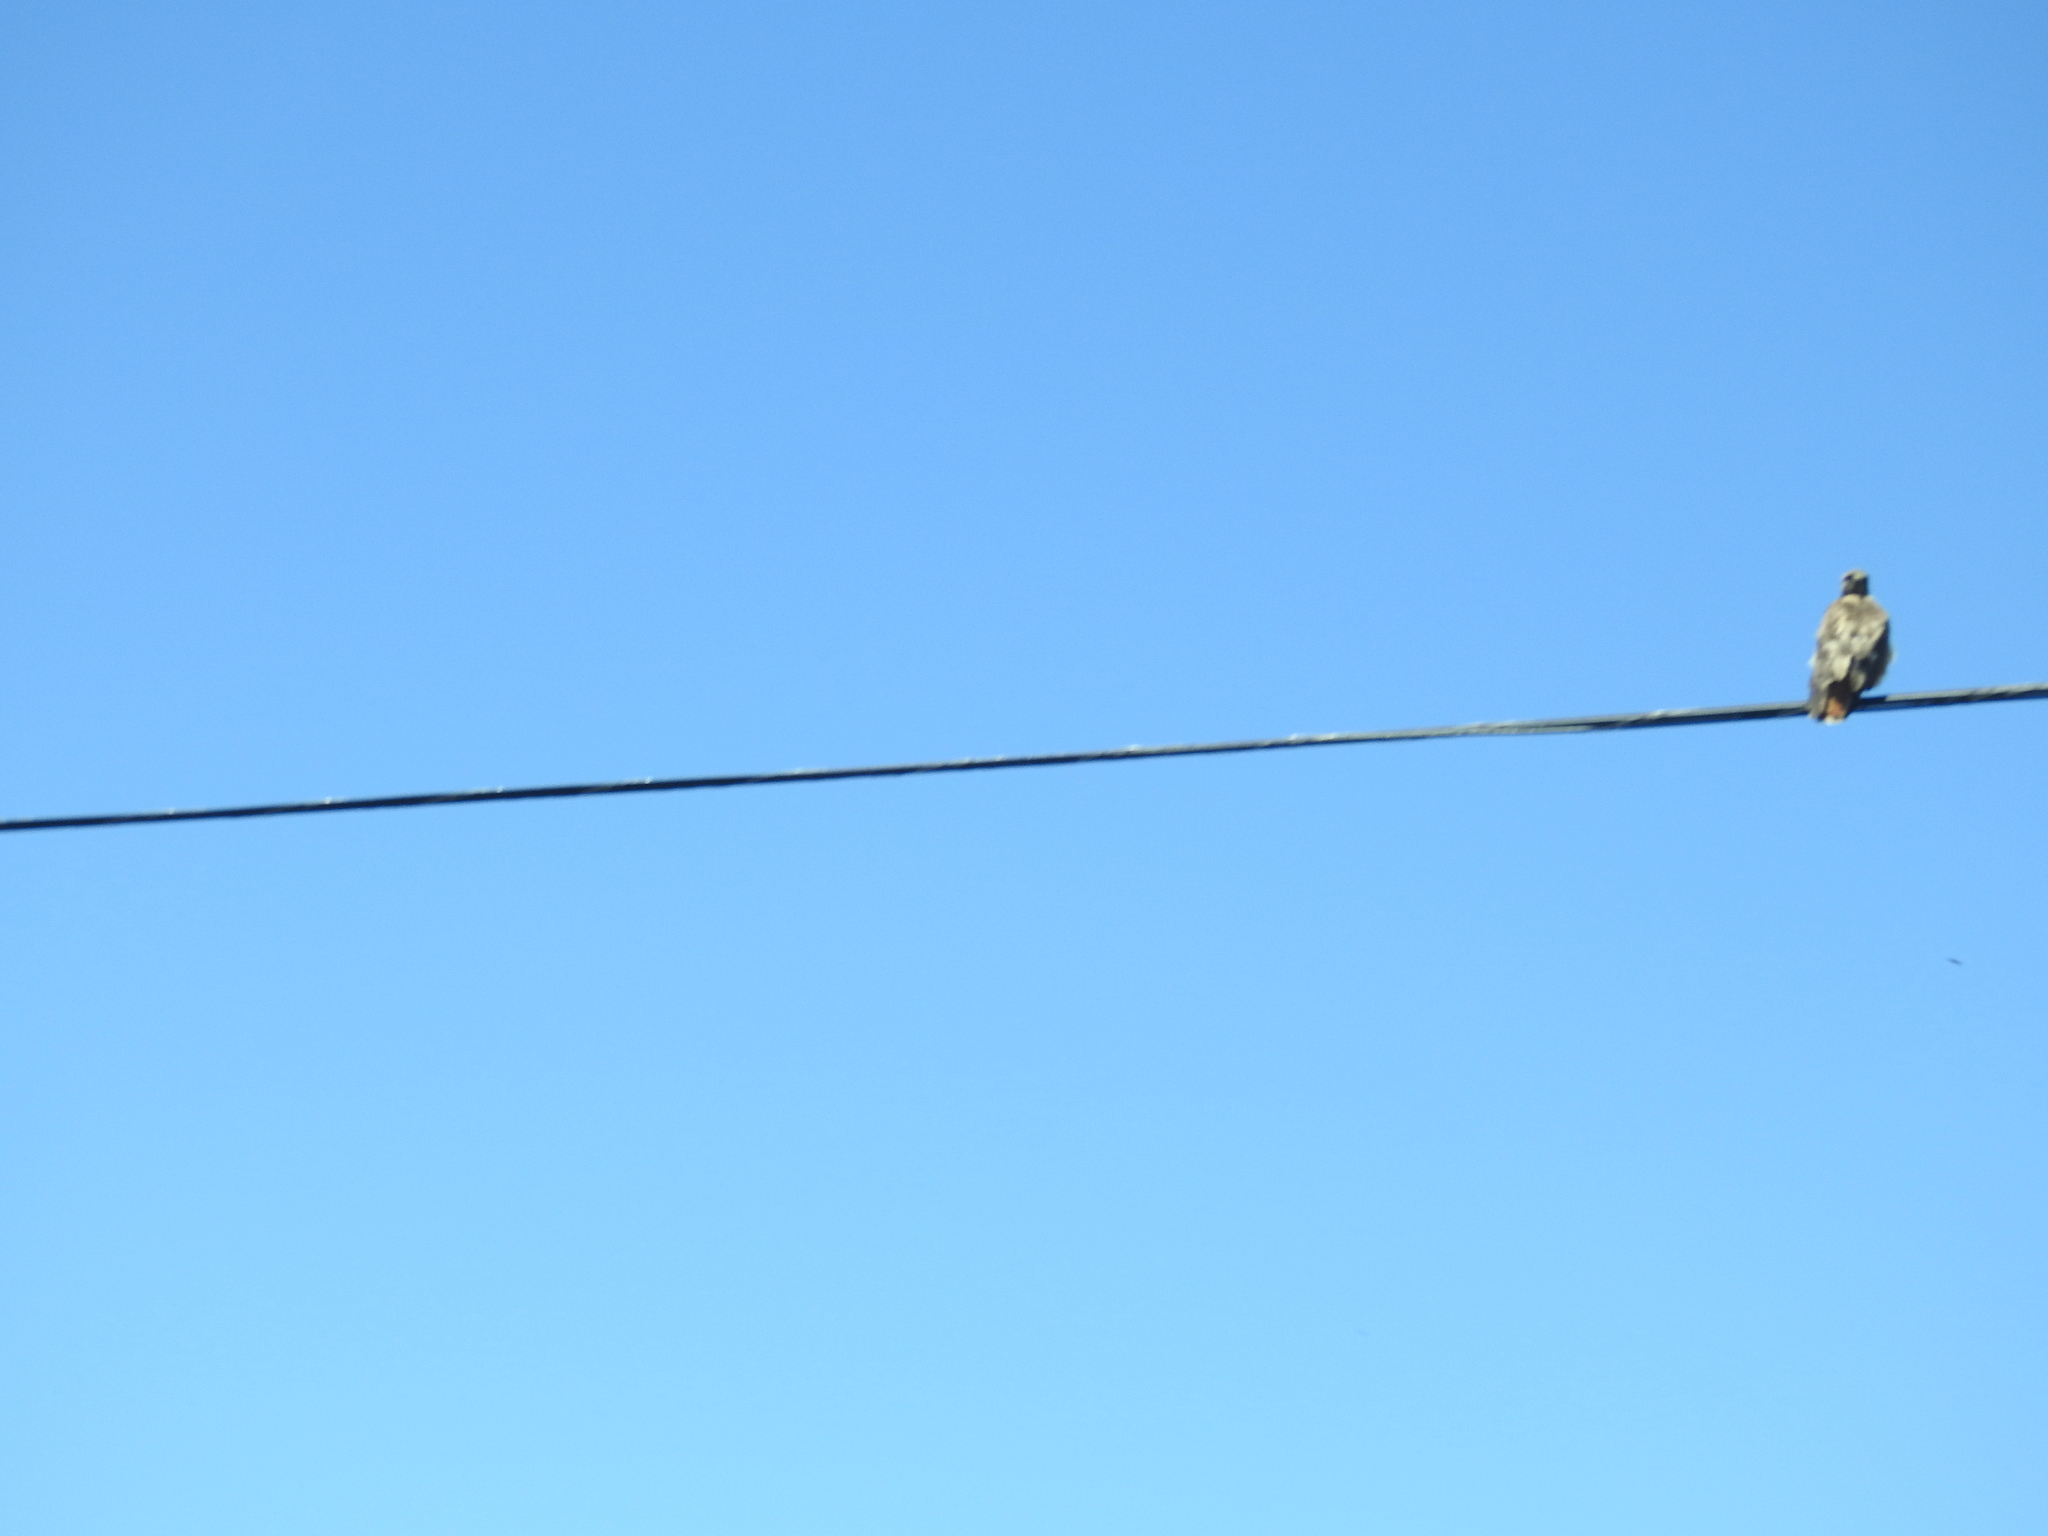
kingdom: Animalia
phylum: Chordata
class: Aves
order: Accipitriformes
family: Accipitridae
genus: Buteo
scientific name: Buteo jamaicensis
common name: Red-tailed hawk
